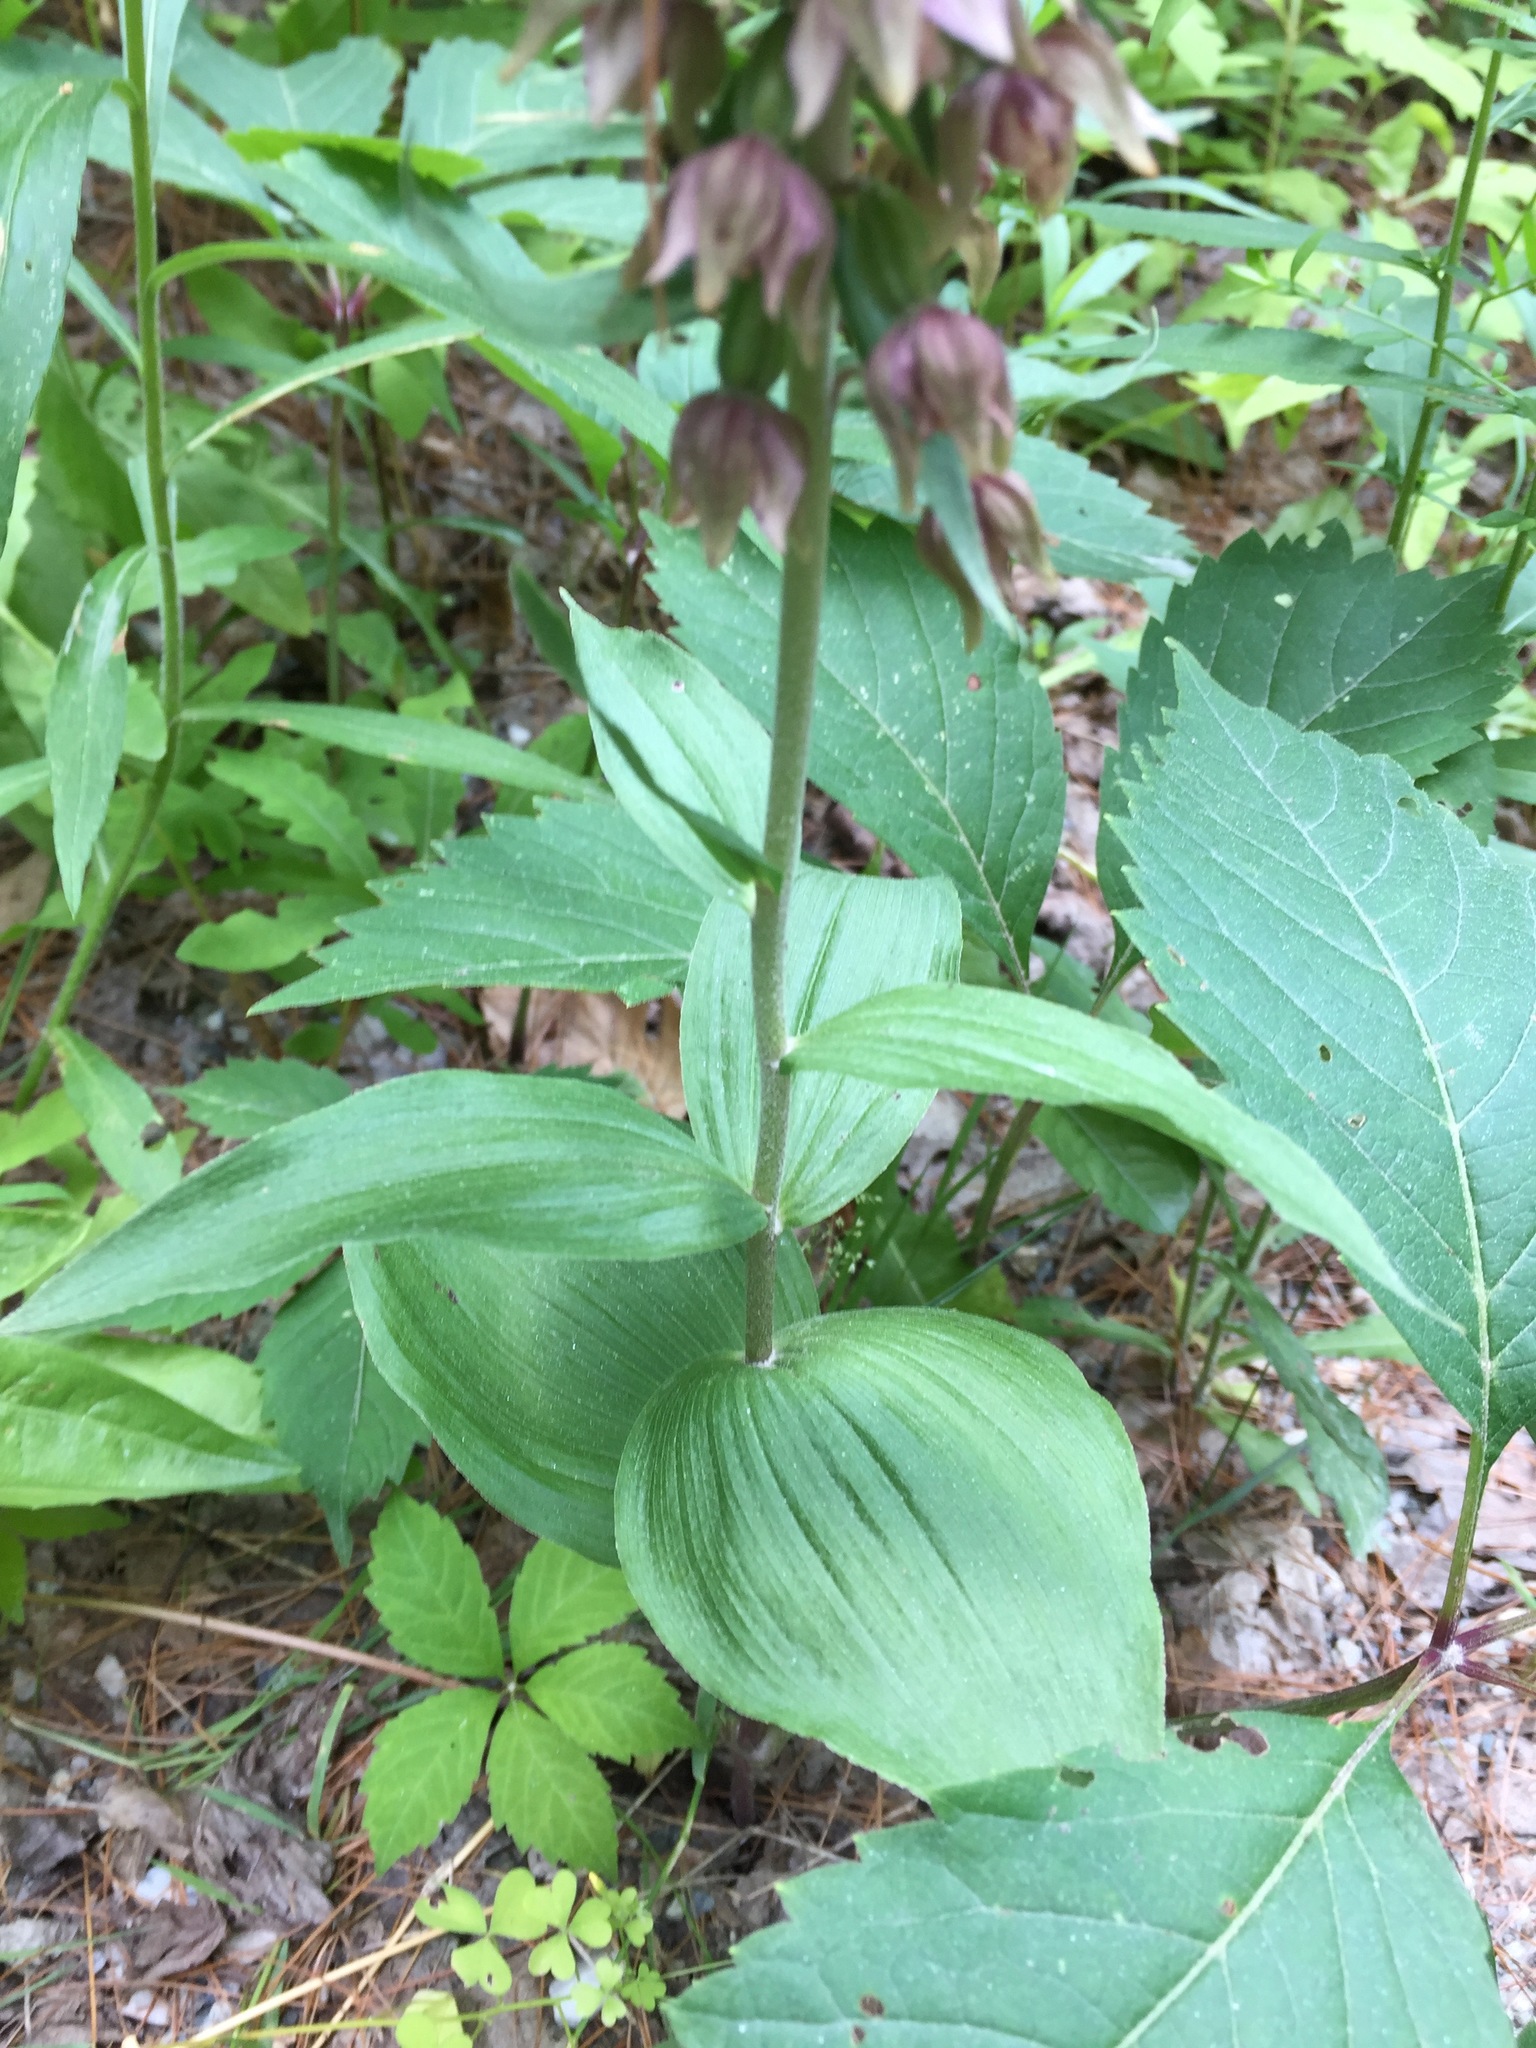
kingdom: Plantae
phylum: Tracheophyta
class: Liliopsida
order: Asparagales
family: Orchidaceae
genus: Epipactis
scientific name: Epipactis helleborine
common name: Broad-leaved helleborine
